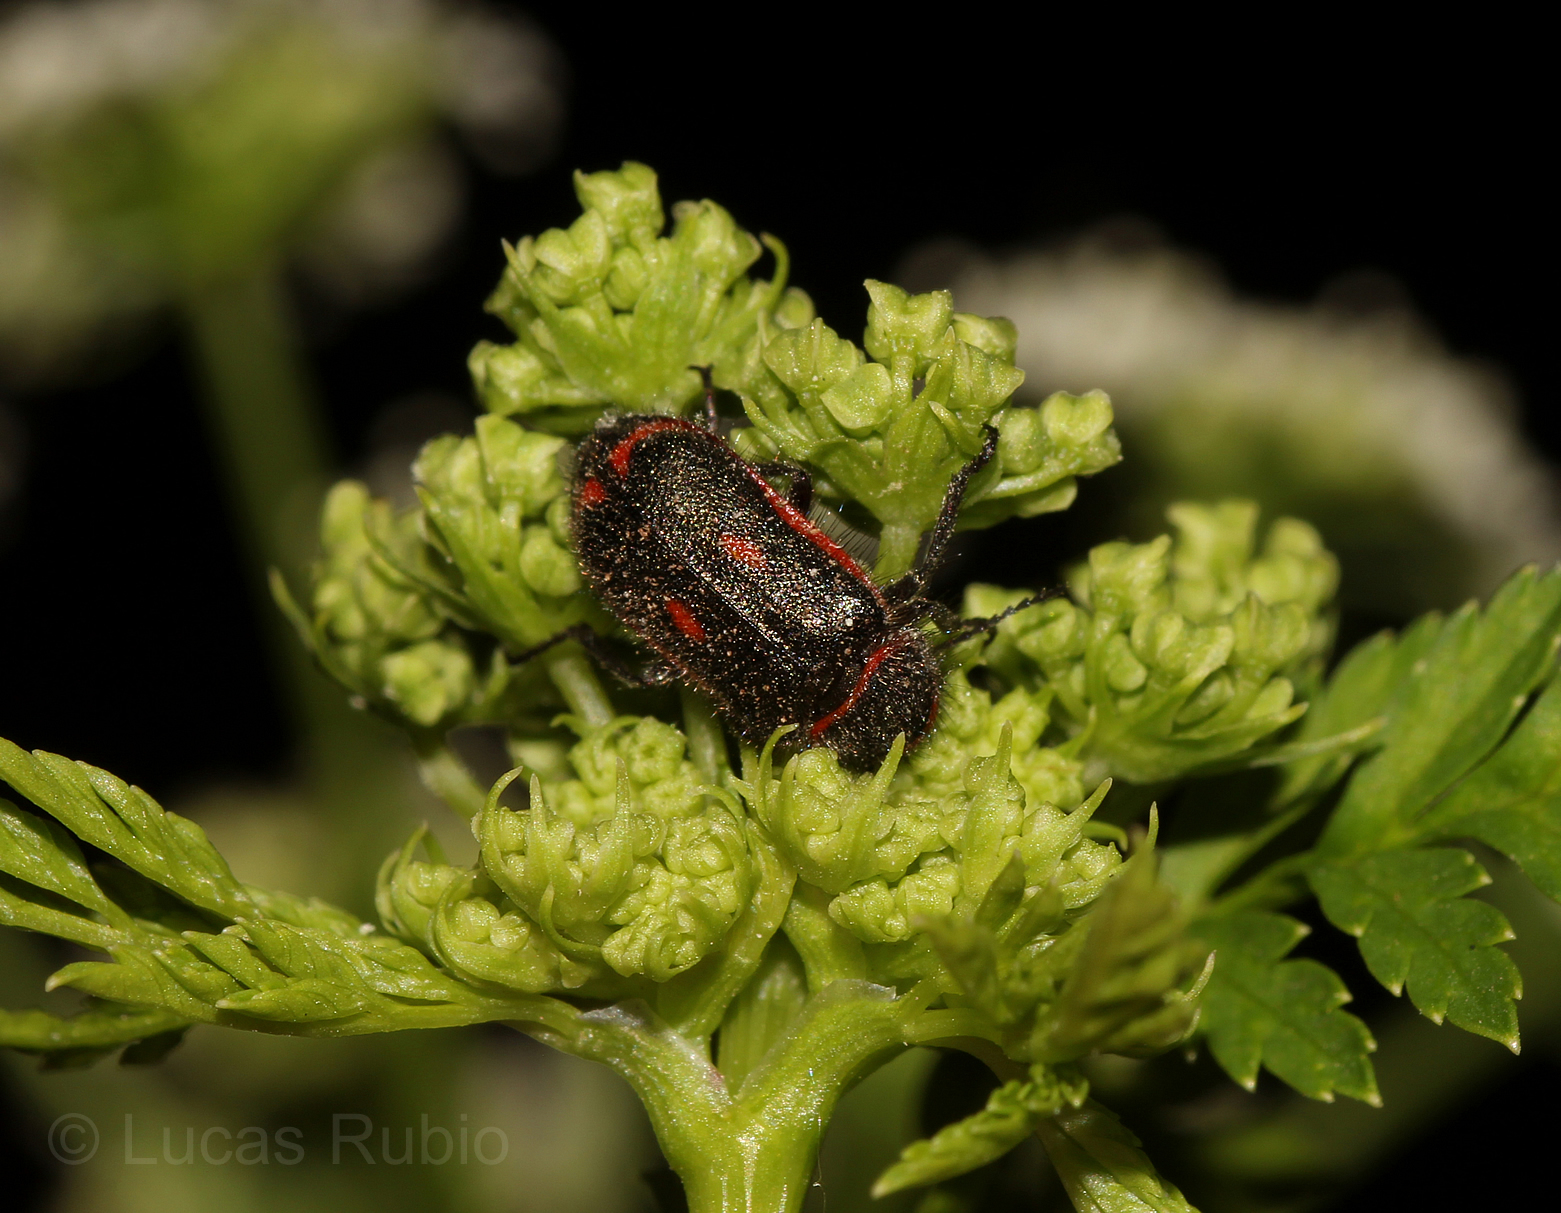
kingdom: Animalia
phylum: Arthropoda
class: Insecta
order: Coleoptera
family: Melyridae
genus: Astylus
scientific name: Astylus
